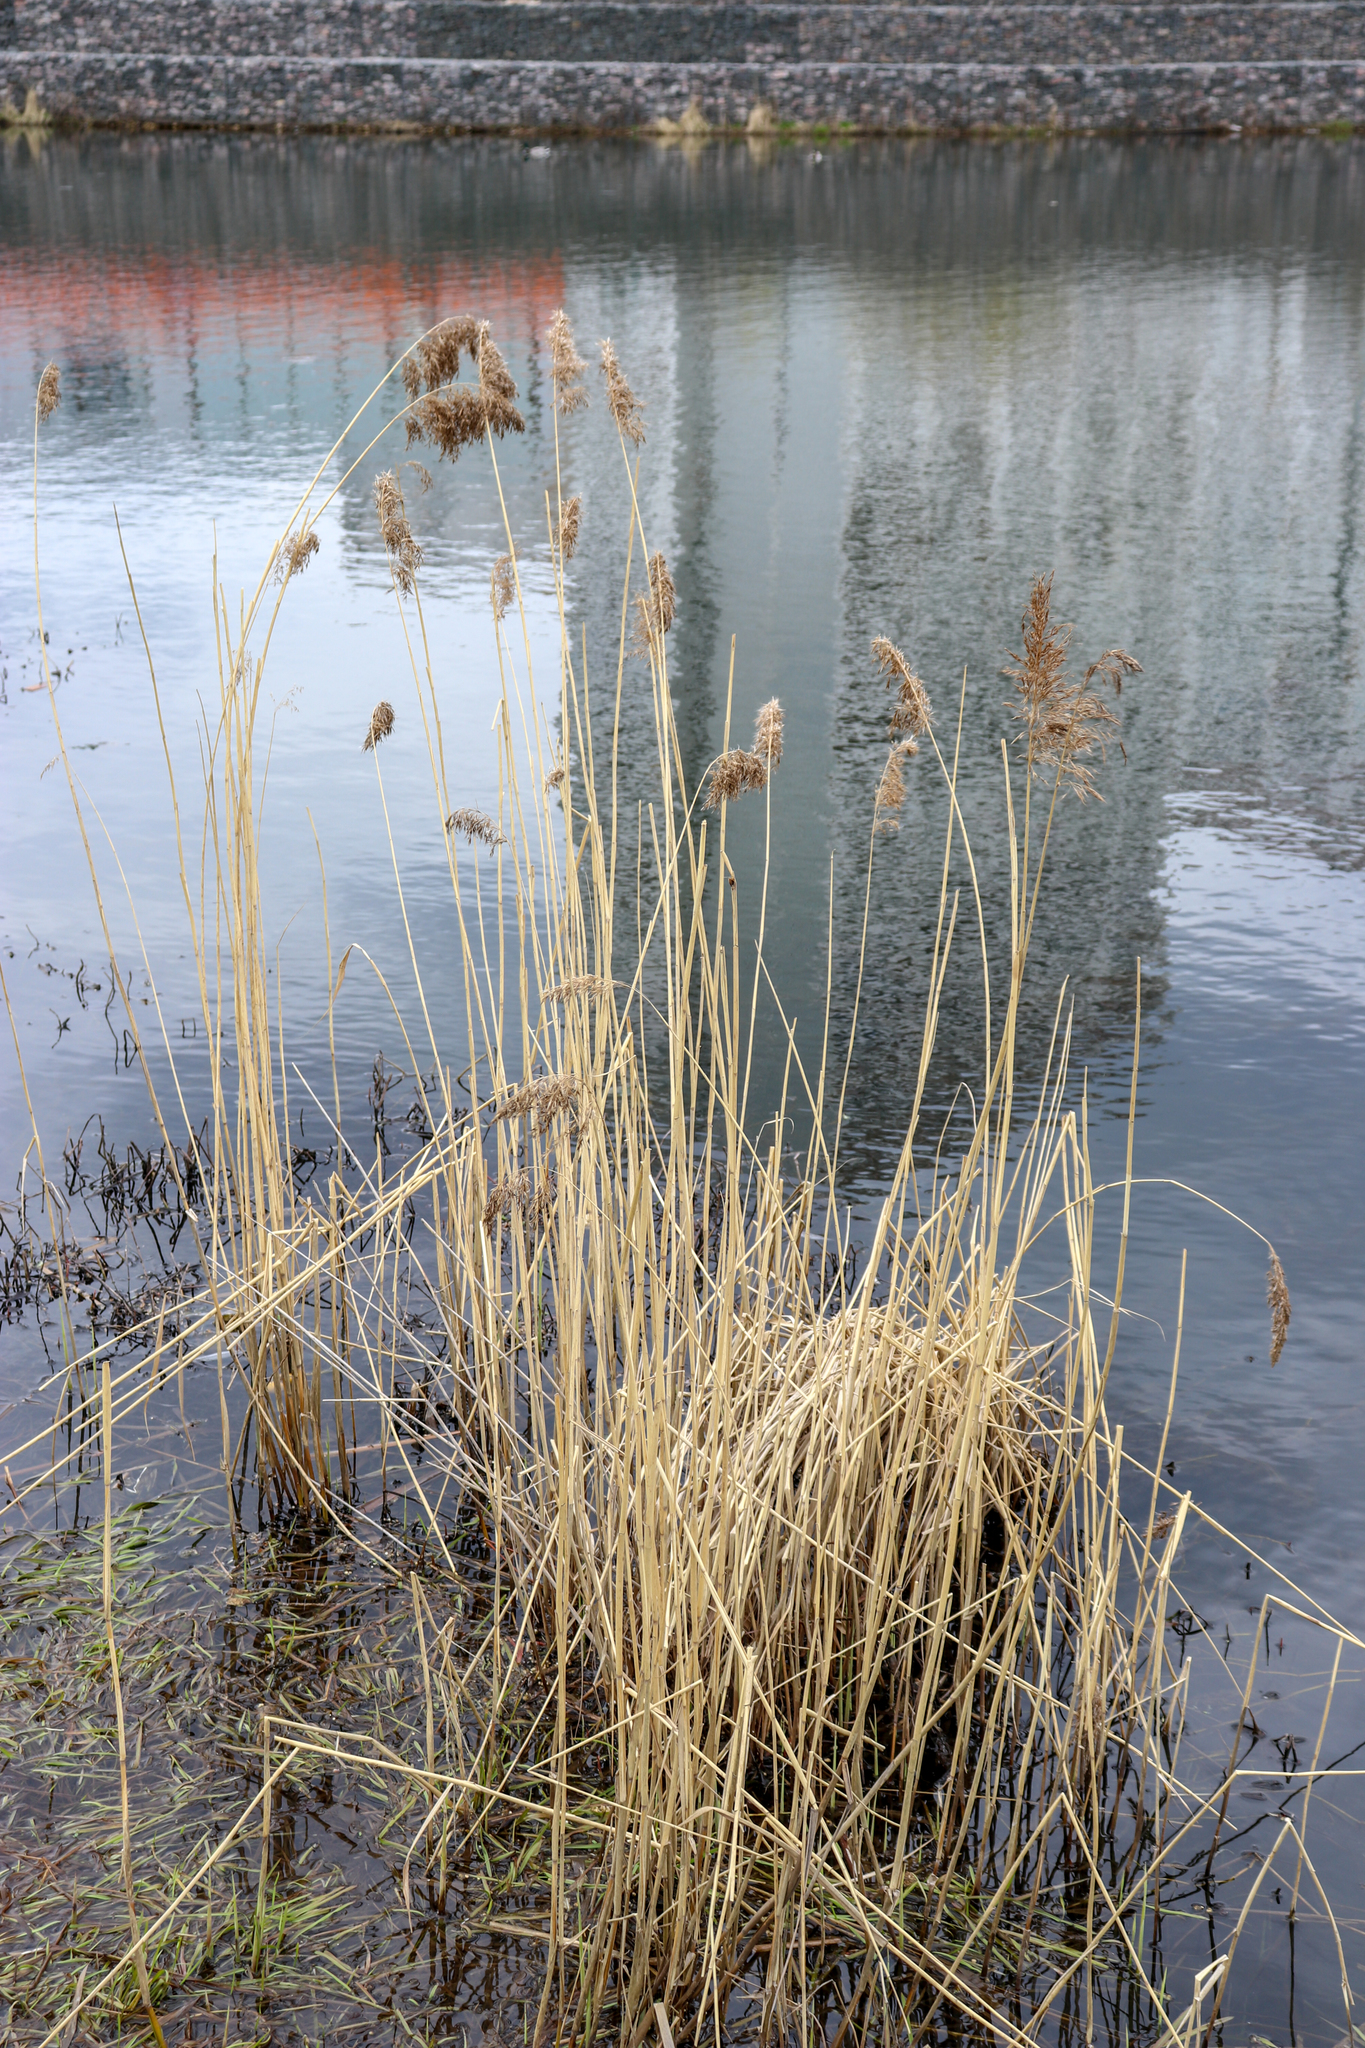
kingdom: Plantae
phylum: Tracheophyta
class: Liliopsida
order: Poales
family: Poaceae
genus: Phragmites
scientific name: Phragmites australis
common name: Common reed
